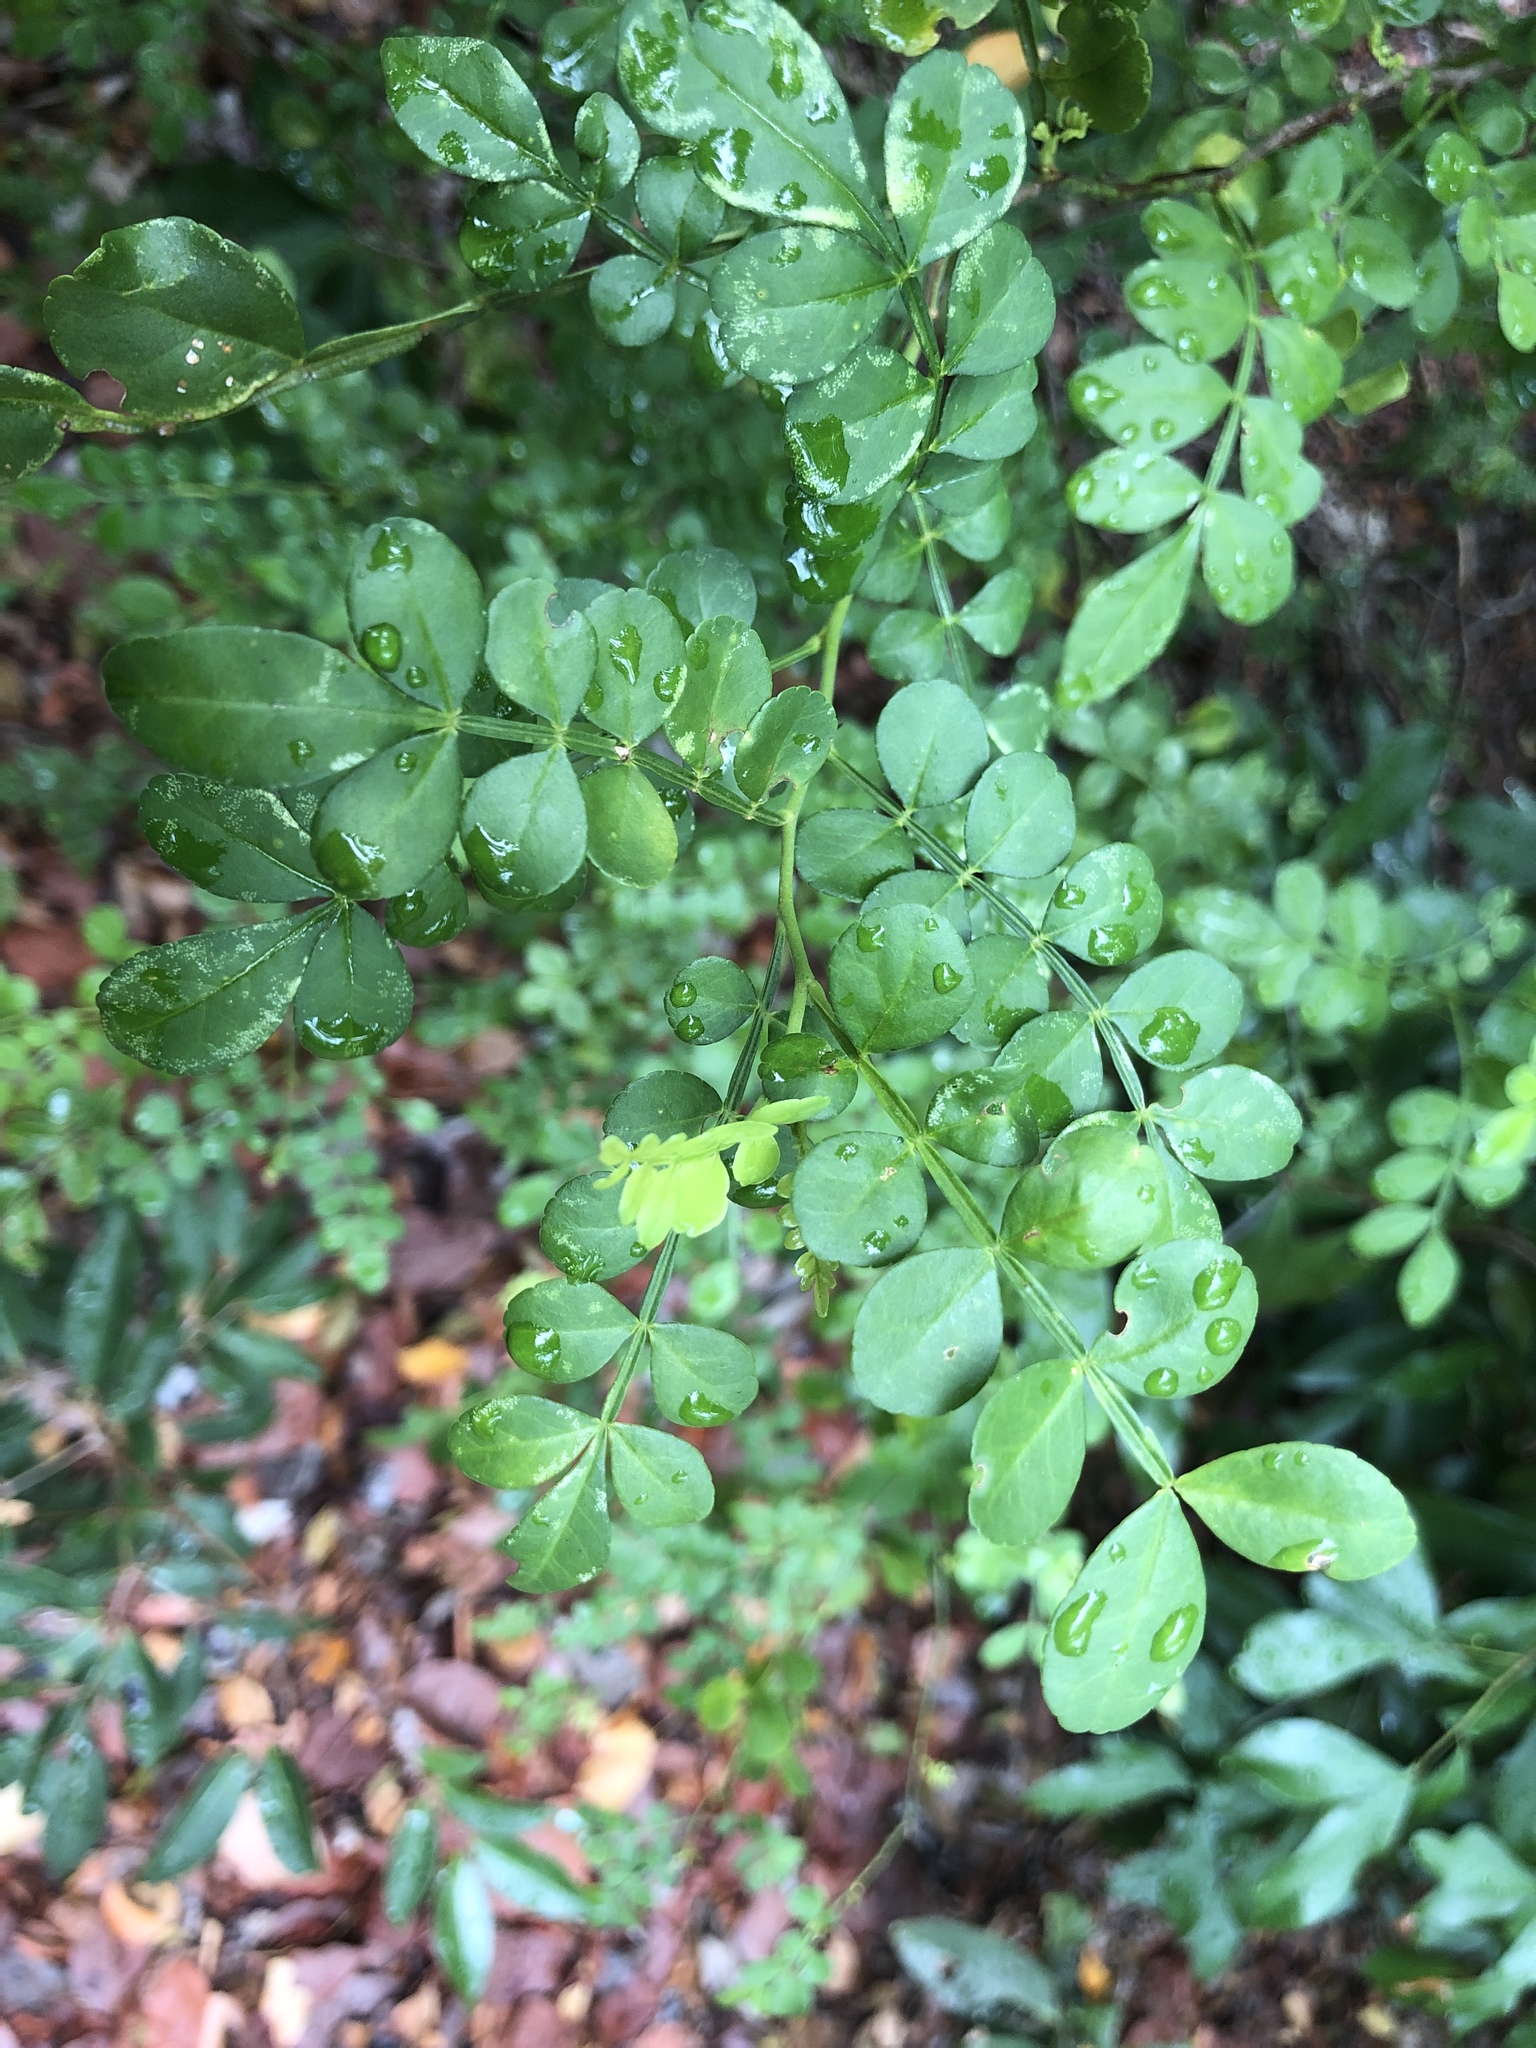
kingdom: Plantae
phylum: Tracheophyta
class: Magnoliopsida
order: Sapindales
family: Rutaceae
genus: Zanthoxylum
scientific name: Zanthoxylum fagara
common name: Lime prickly-ash
